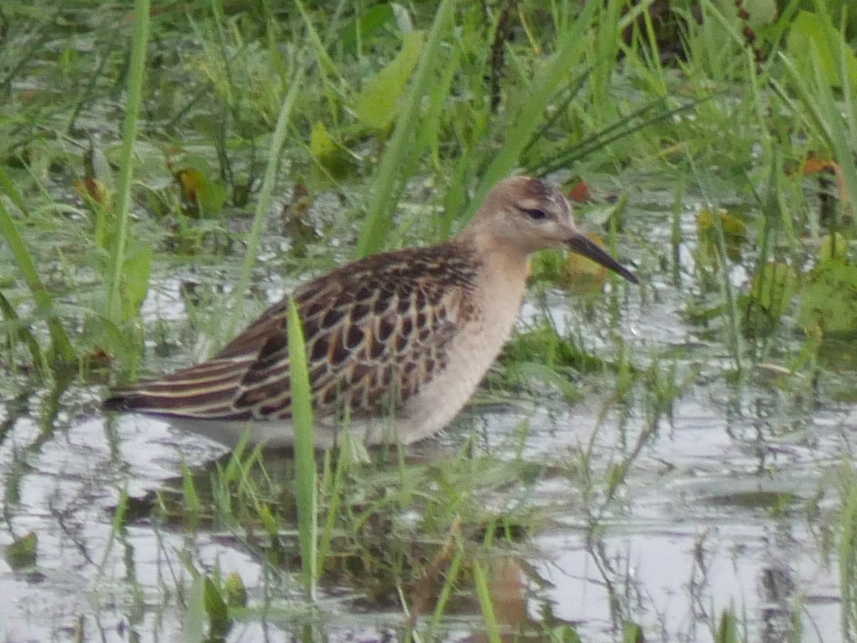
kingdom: Animalia
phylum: Chordata
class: Aves
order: Charadriiformes
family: Scolopacidae
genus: Calidris
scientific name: Calidris pugnax
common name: Ruff
